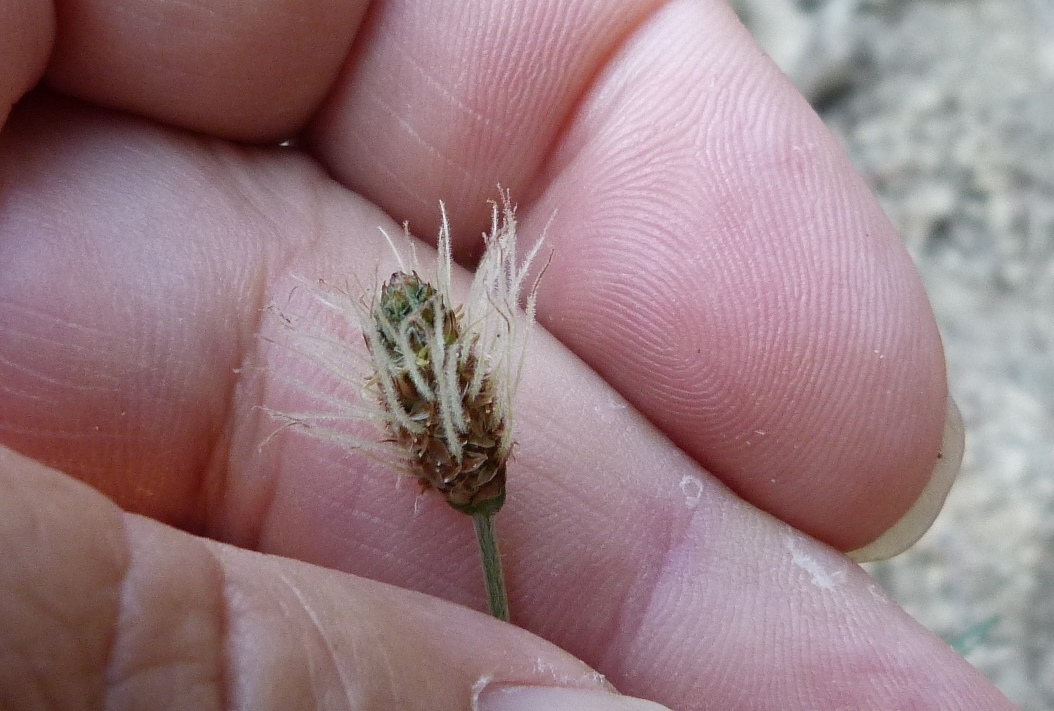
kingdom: Plantae
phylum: Tracheophyta
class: Magnoliopsida
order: Lamiales
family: Plantaginaceae
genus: Plantago
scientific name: Plantago lanceolata
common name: Ribwort plantain
